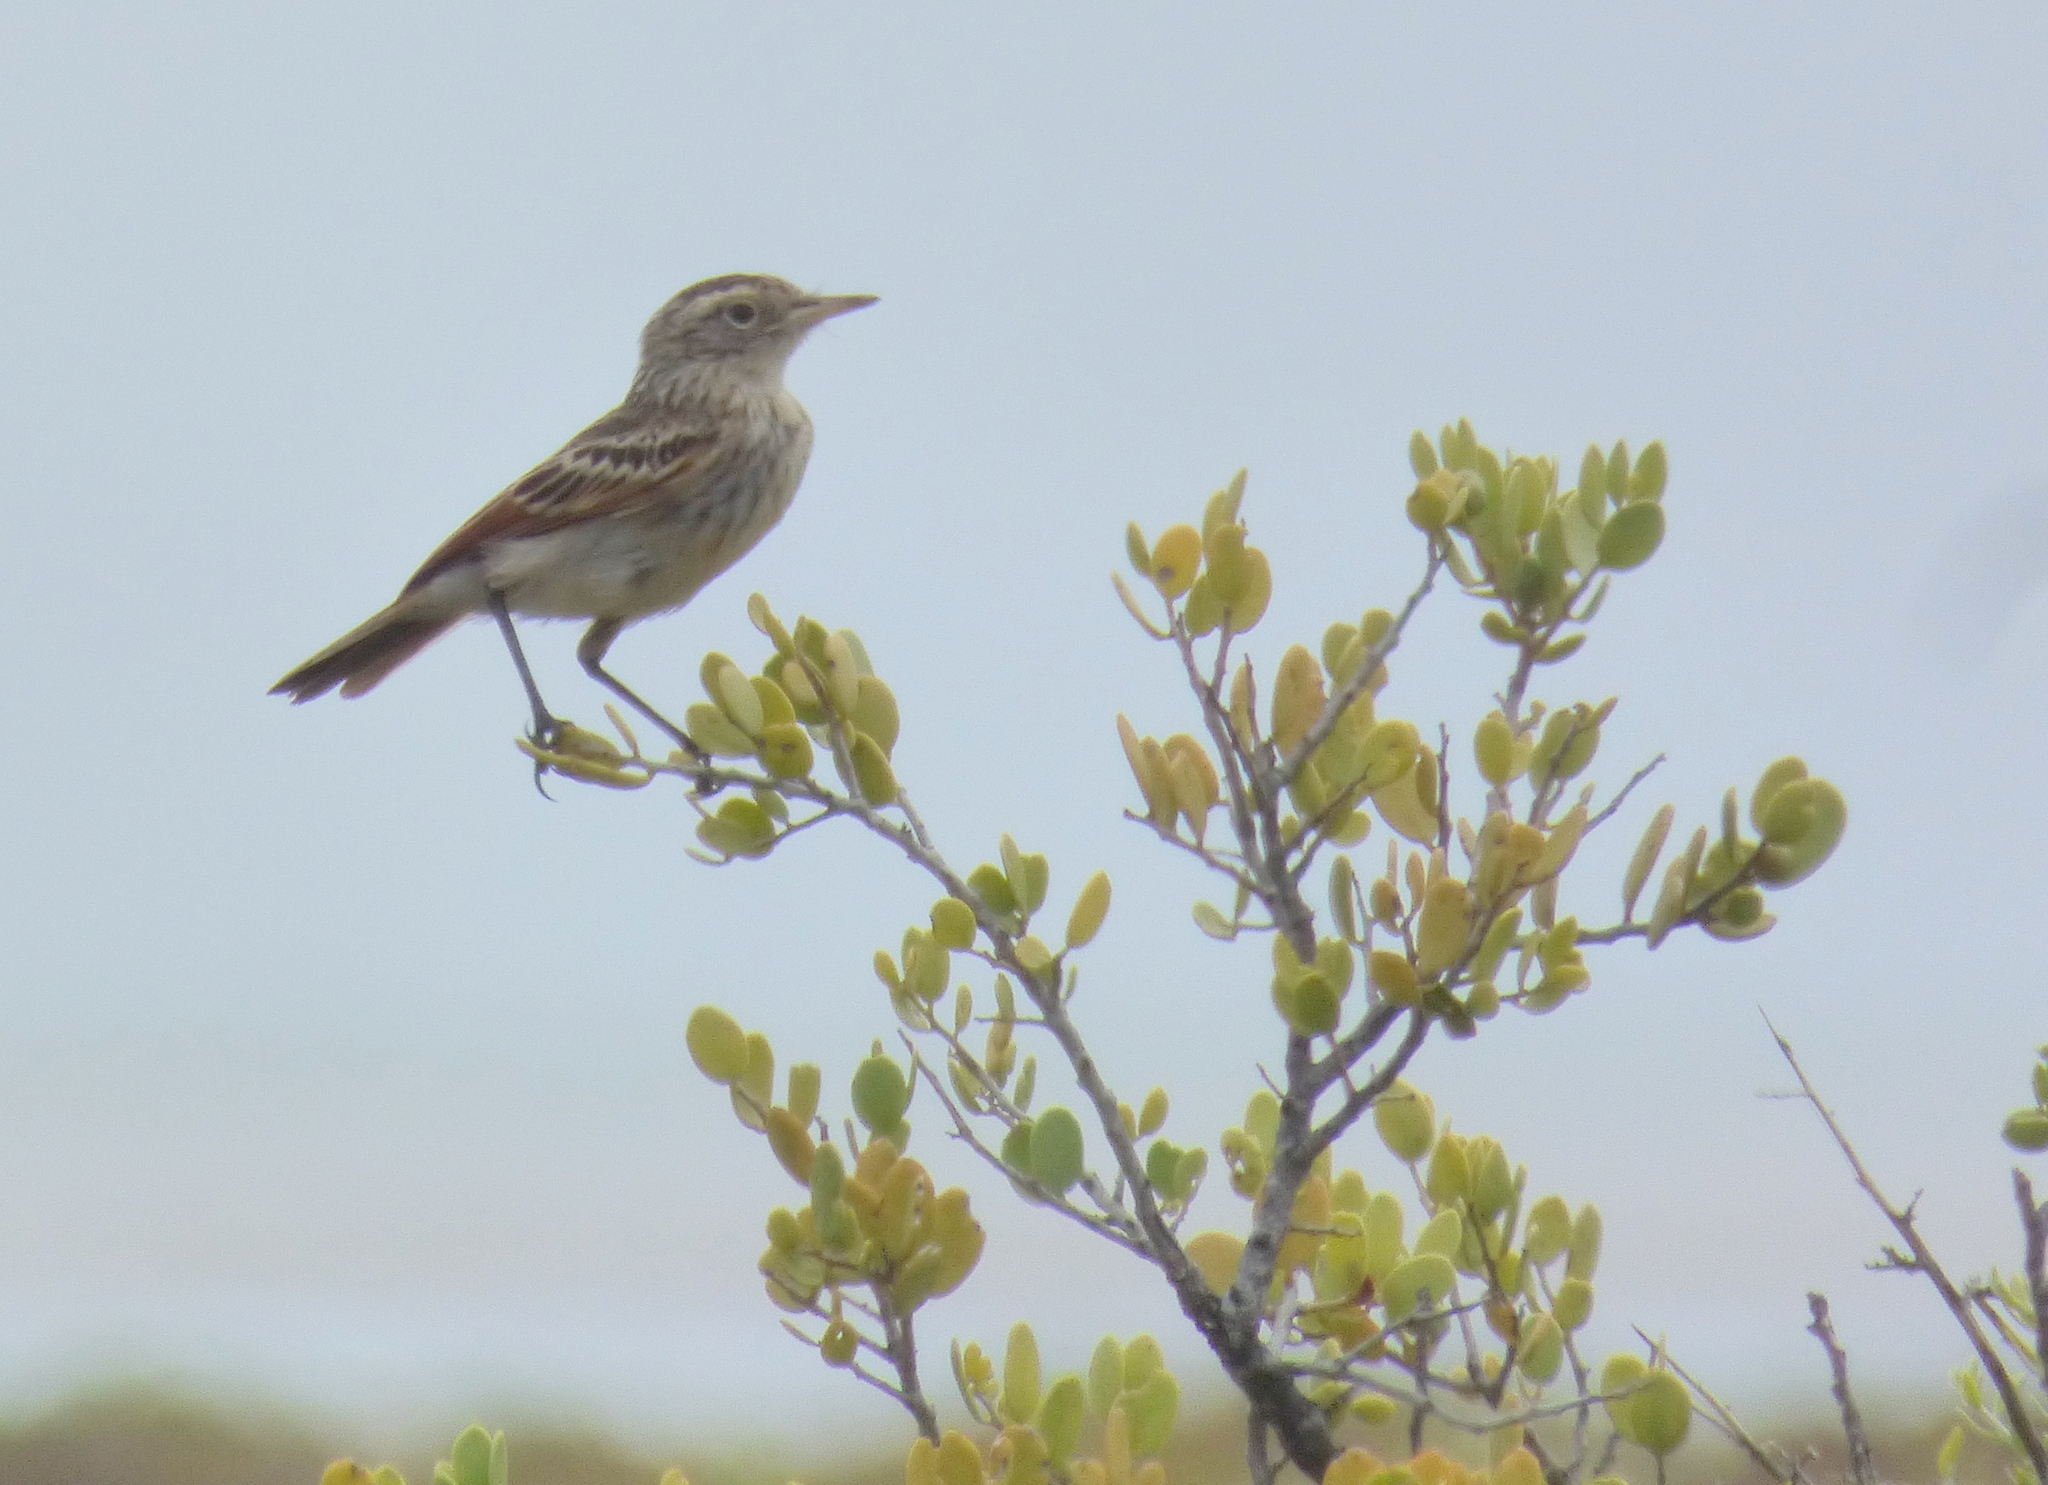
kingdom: Animalia
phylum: Chordata
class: Aves
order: Passeriformes
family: Tyrannidae
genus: Hymenops
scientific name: Hymenops perspicillatus
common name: Spectacled tyrant
